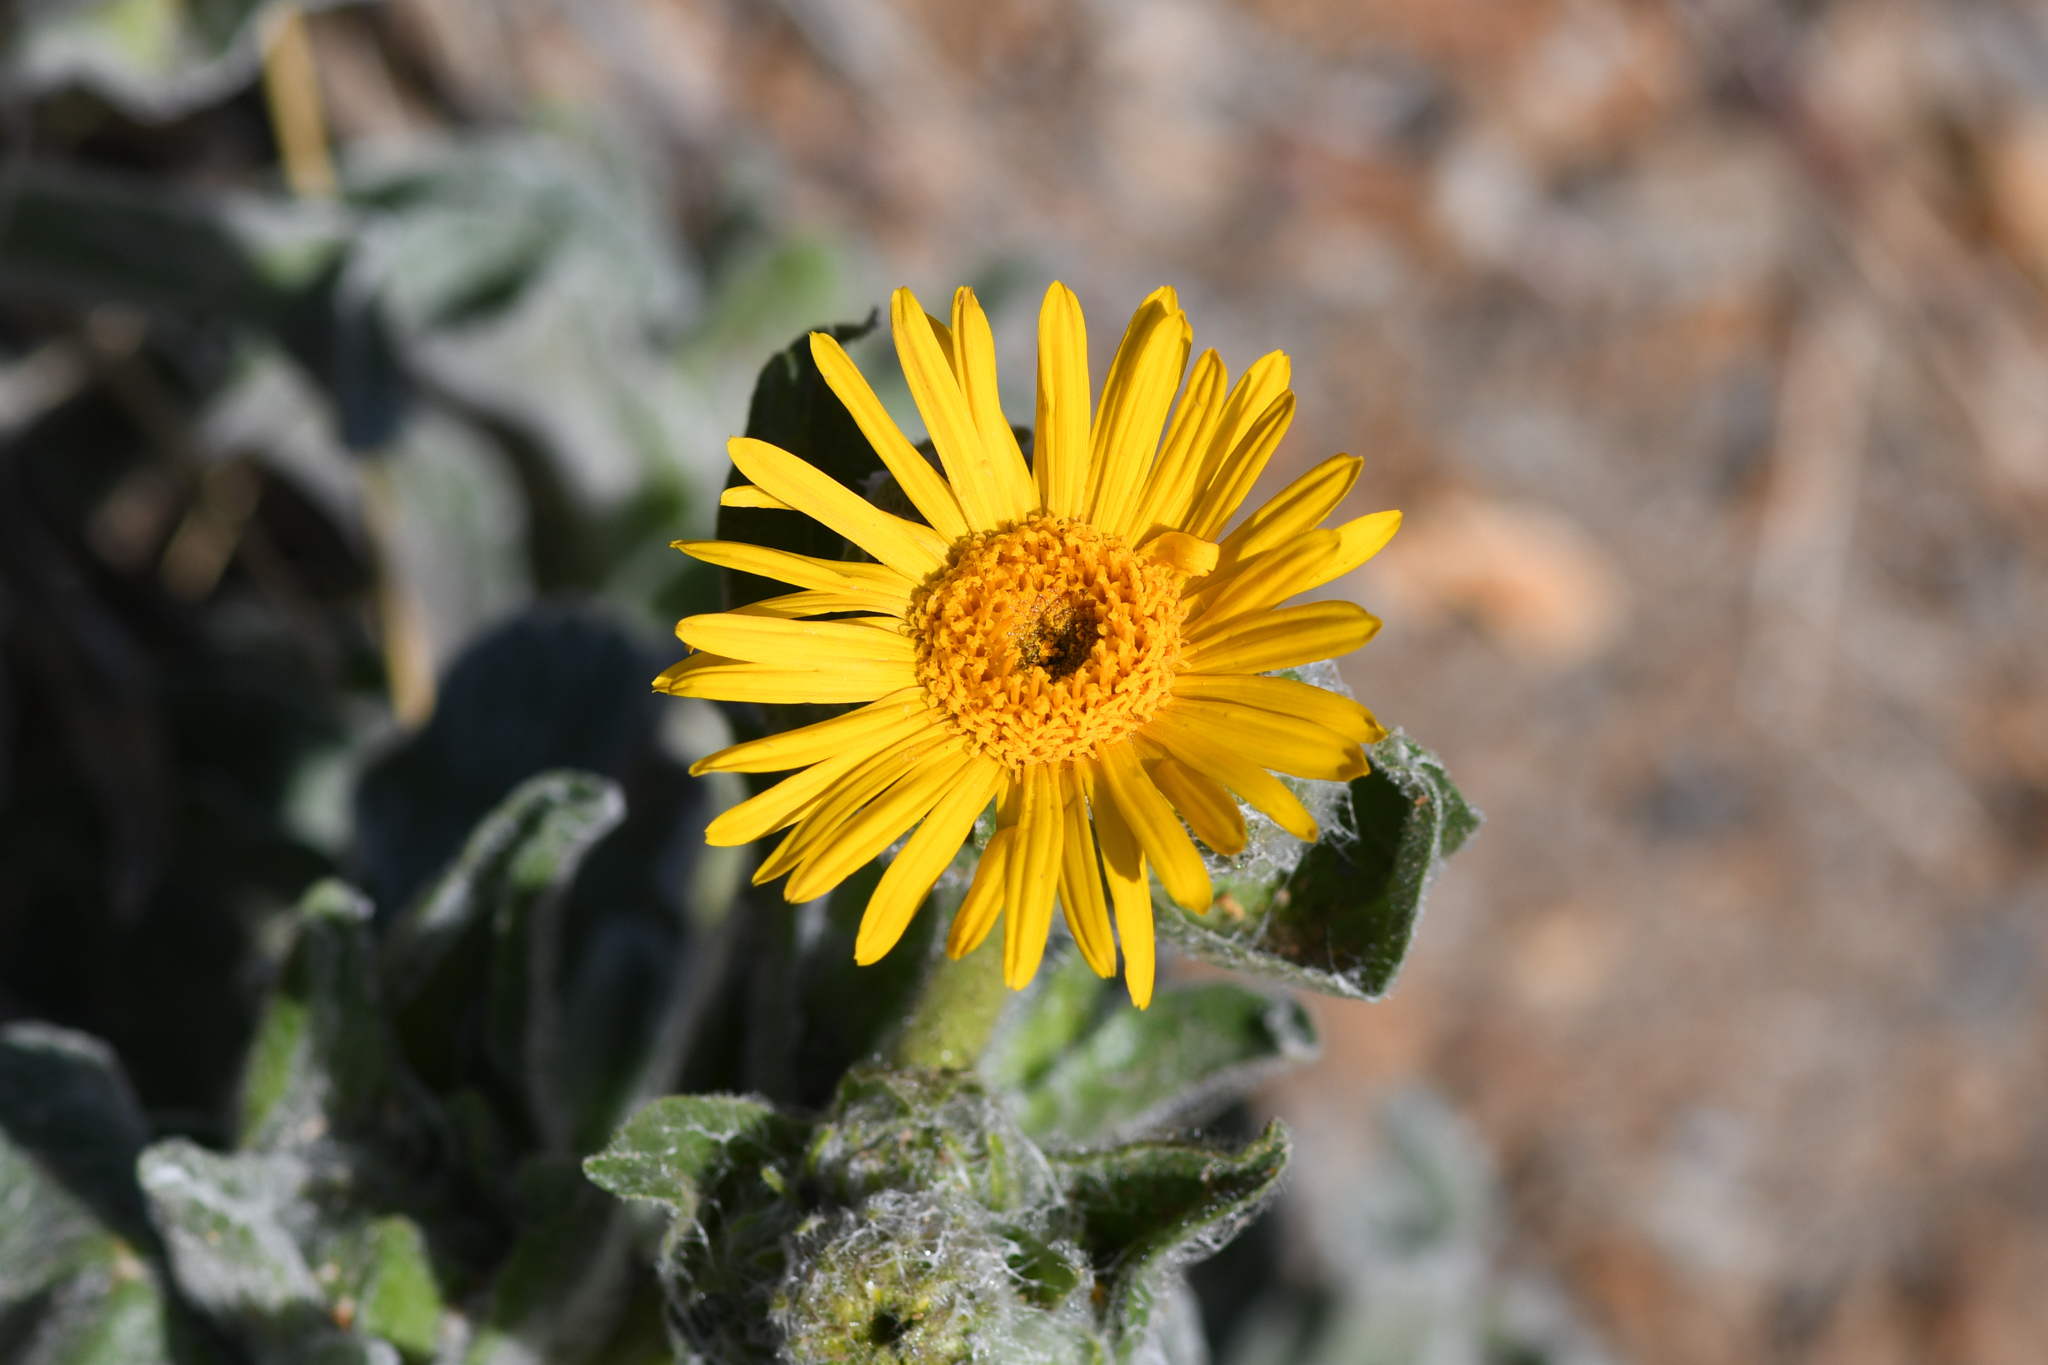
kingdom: Plantae
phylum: Tracheophyta
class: Magnoliopsida
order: Asterales
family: Asteraceae
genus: Hulsea
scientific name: Hulsea californica
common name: San diego alpinegold
